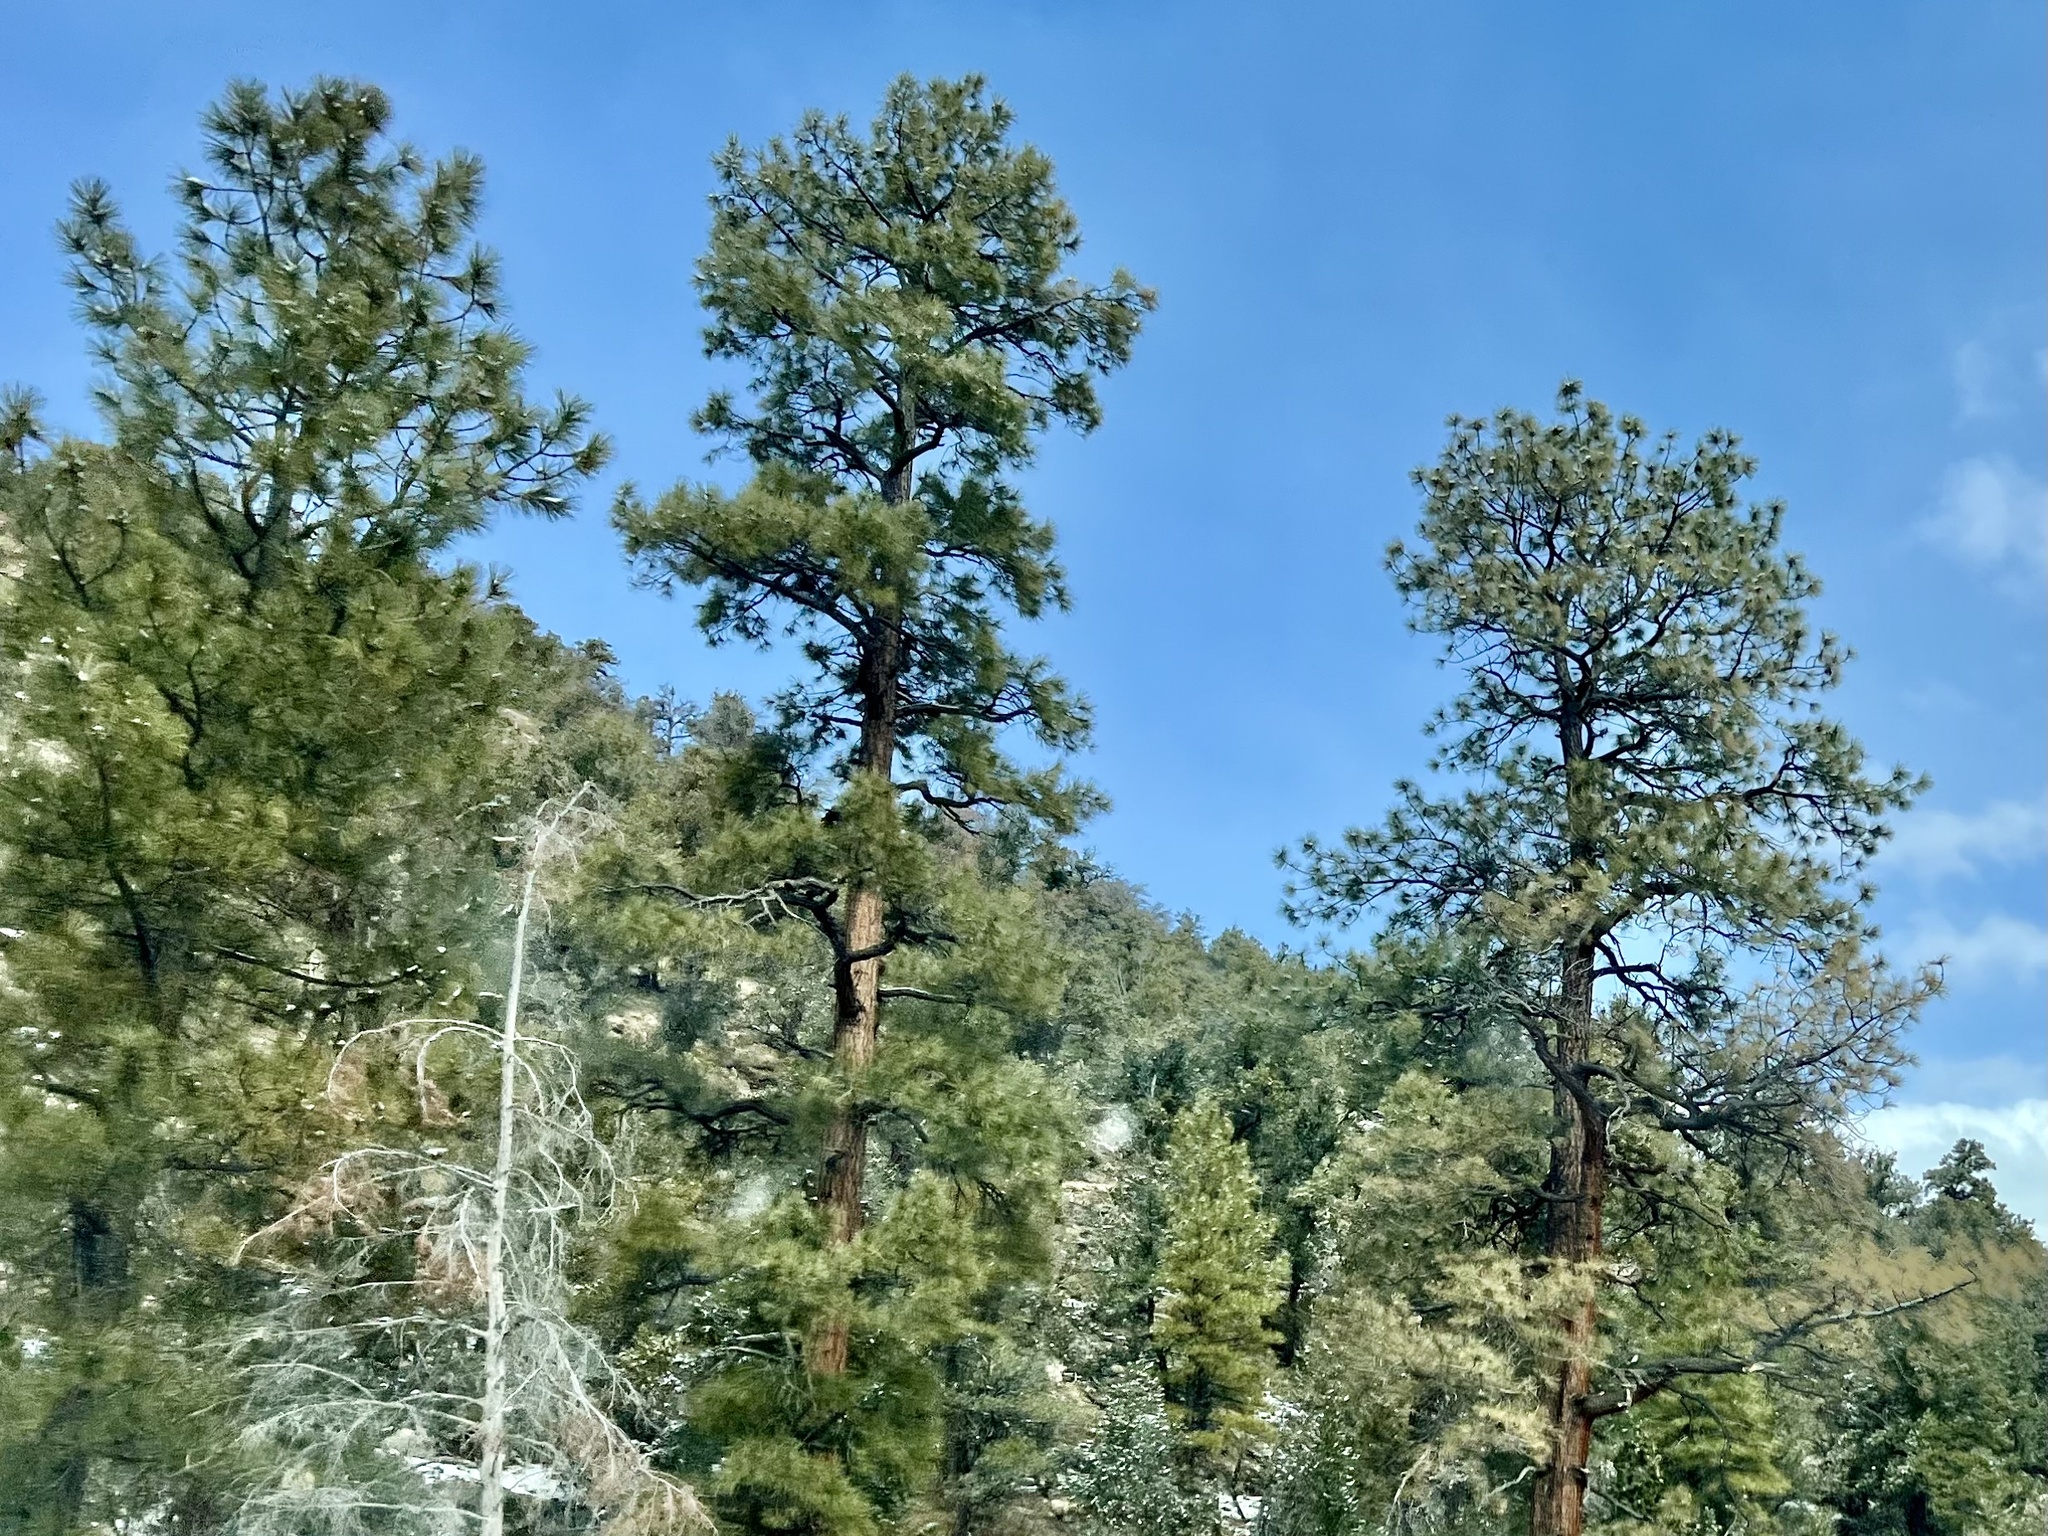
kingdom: Plantae
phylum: Tracheophyta
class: Pinopsida
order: Pinales
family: Pinaceae
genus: Pinus
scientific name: Pinus ponderosa
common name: Western yellow-pine
